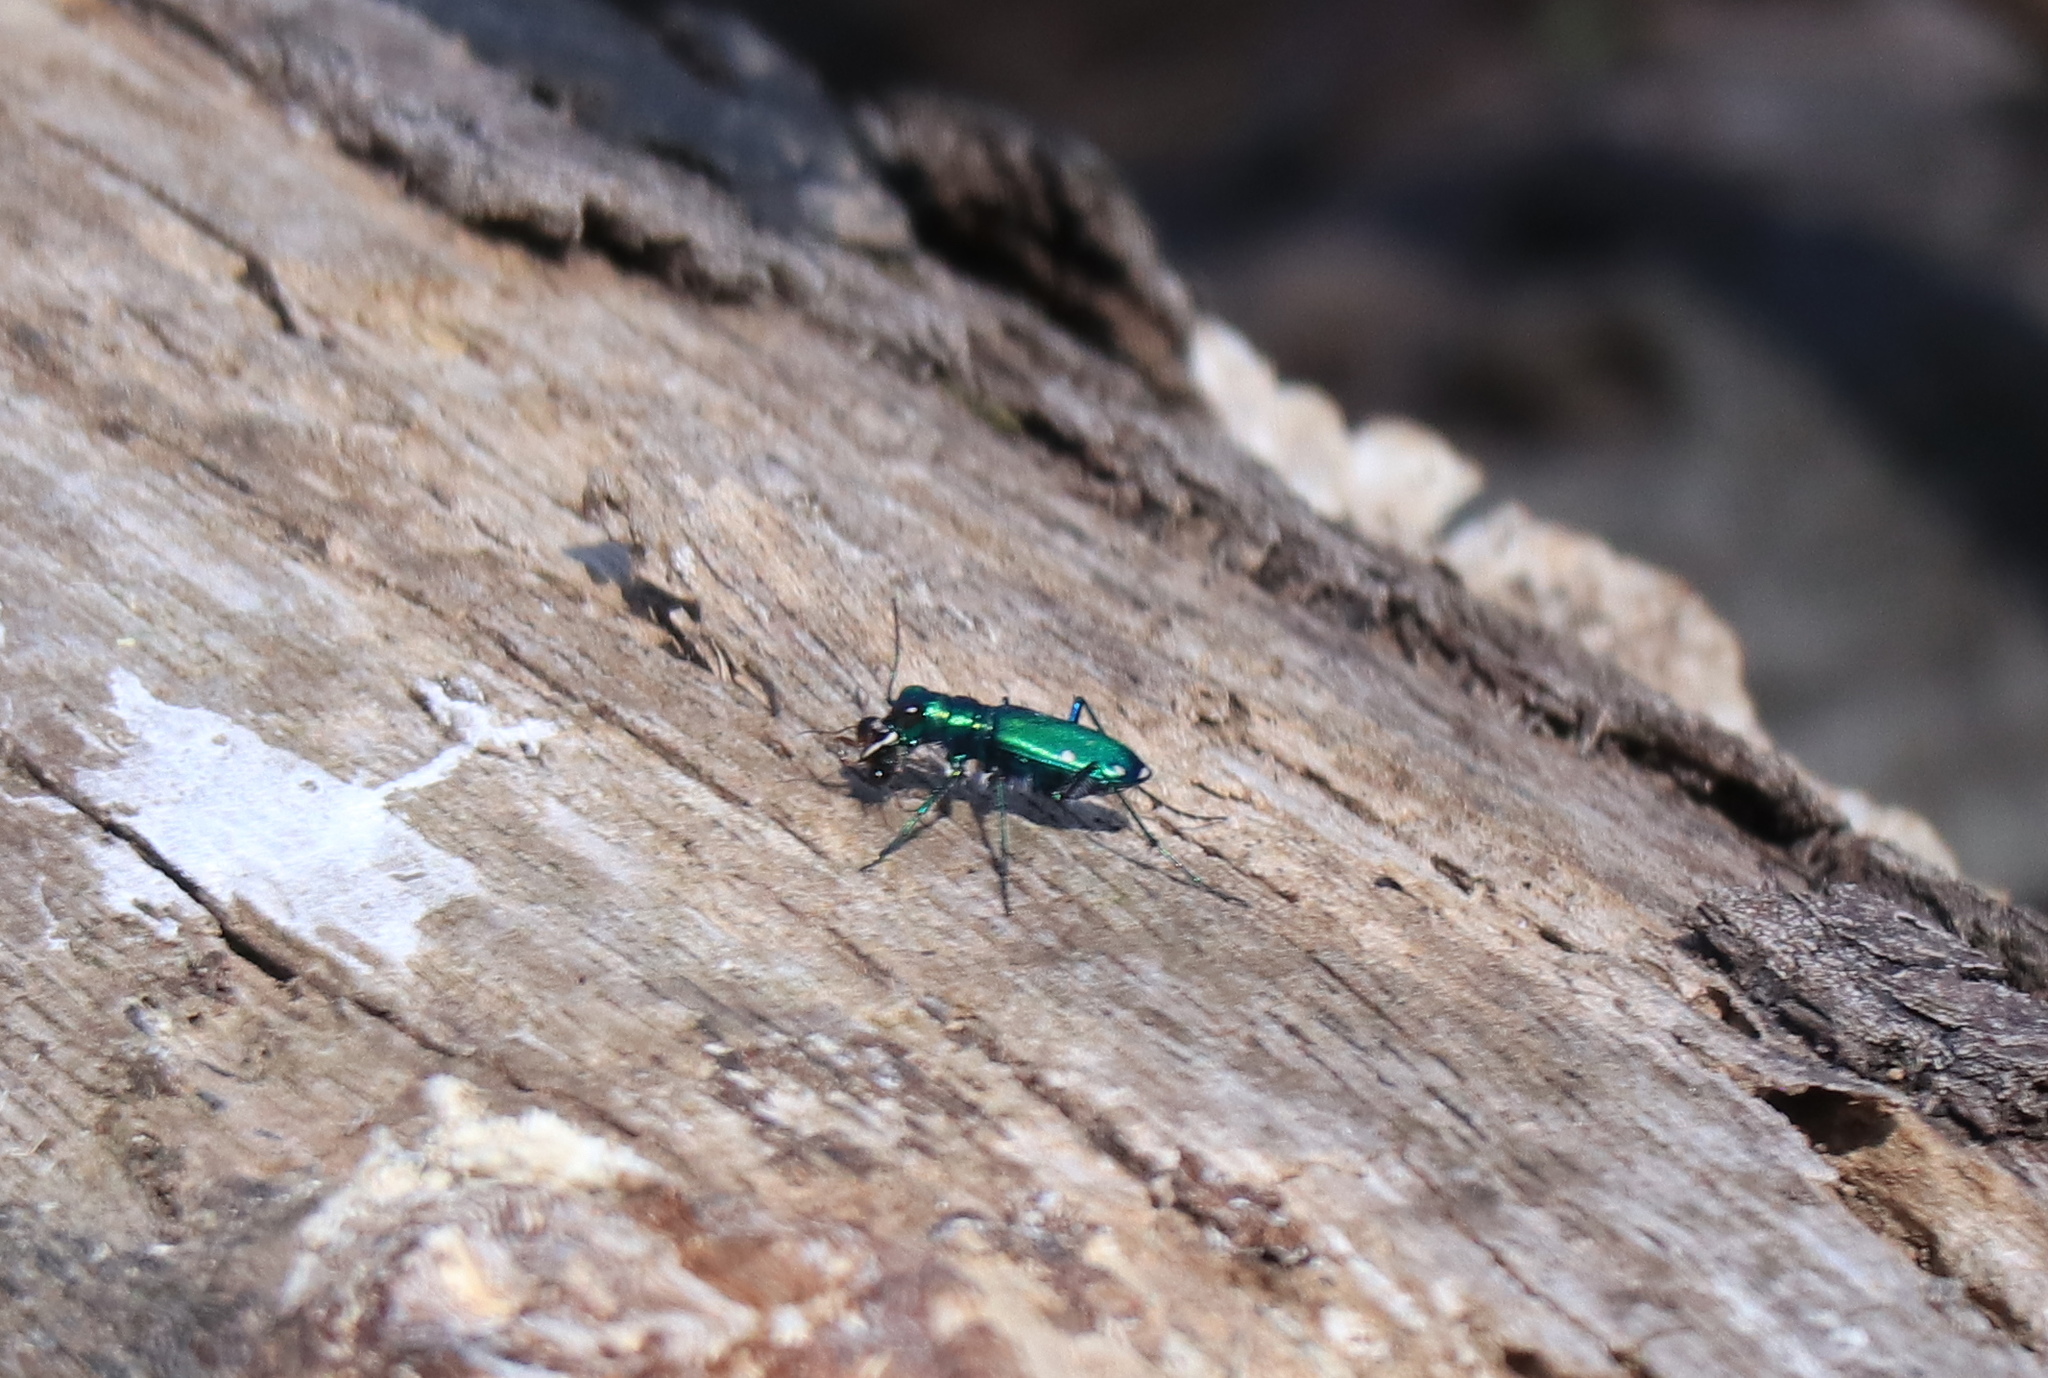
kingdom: Animalia
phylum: Arthropoda
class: Insecta
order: Coleoptera
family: Carabidae
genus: Cicindela
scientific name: Cicindela sexguttata
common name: Six-spotted tiger beetle
